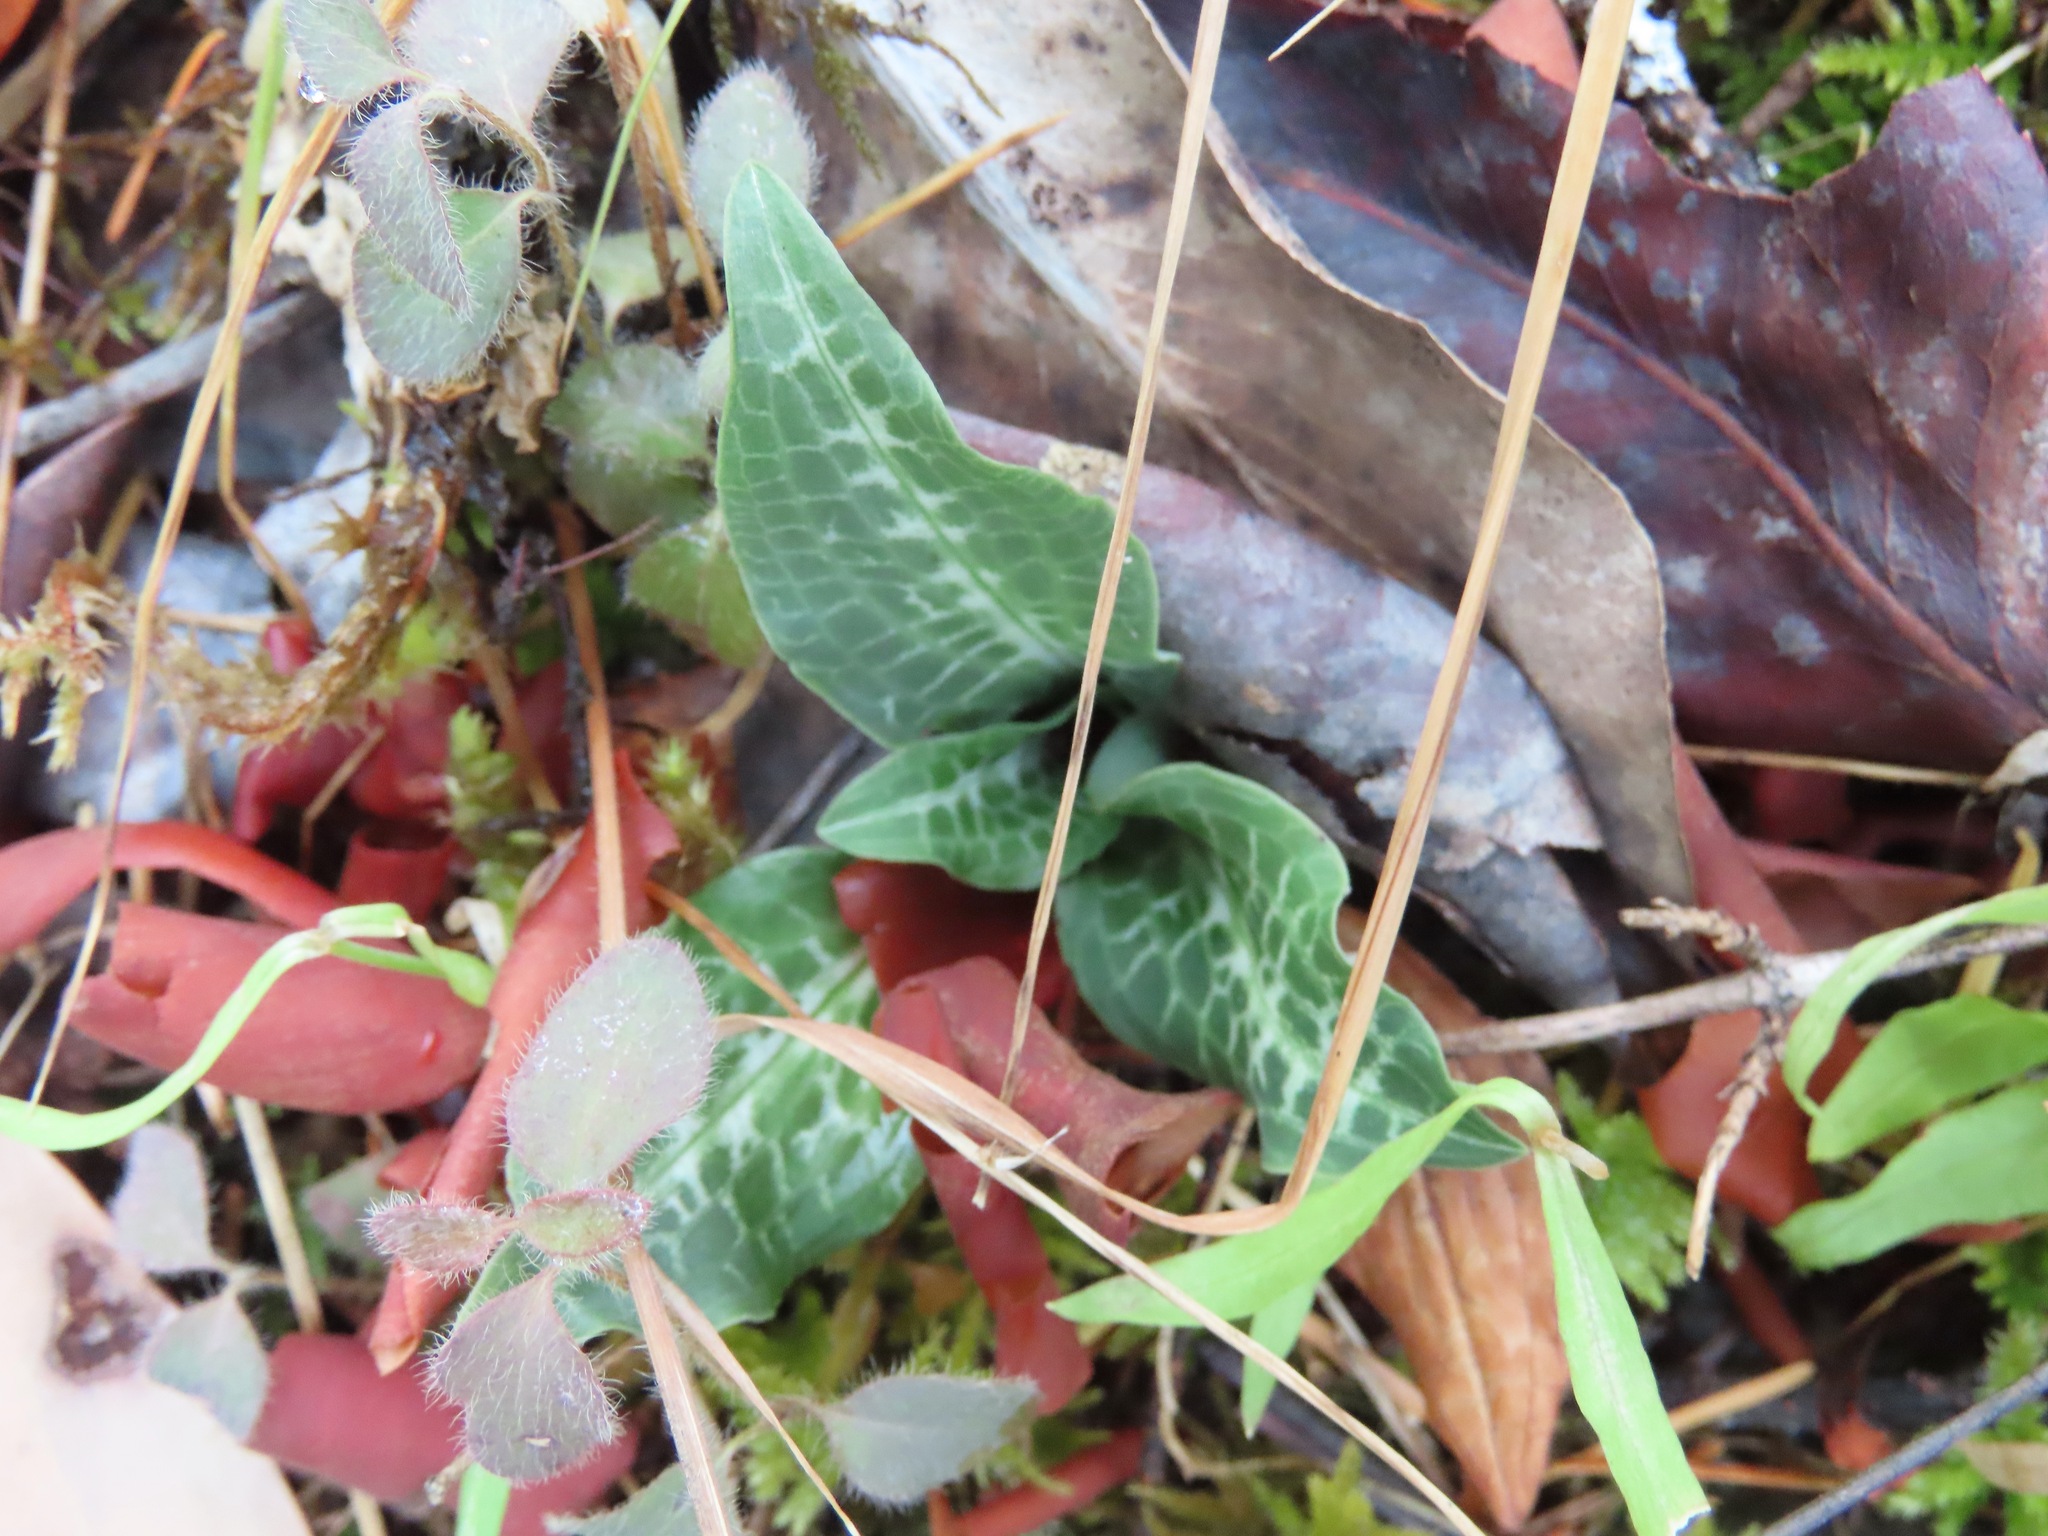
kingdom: Plantae
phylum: Tracheophyta
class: Liliopsida
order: Asparagales
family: Orchidaceae
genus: Goodyera
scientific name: Goodyera oblongifolia
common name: Giant rattlesnake-plantain
